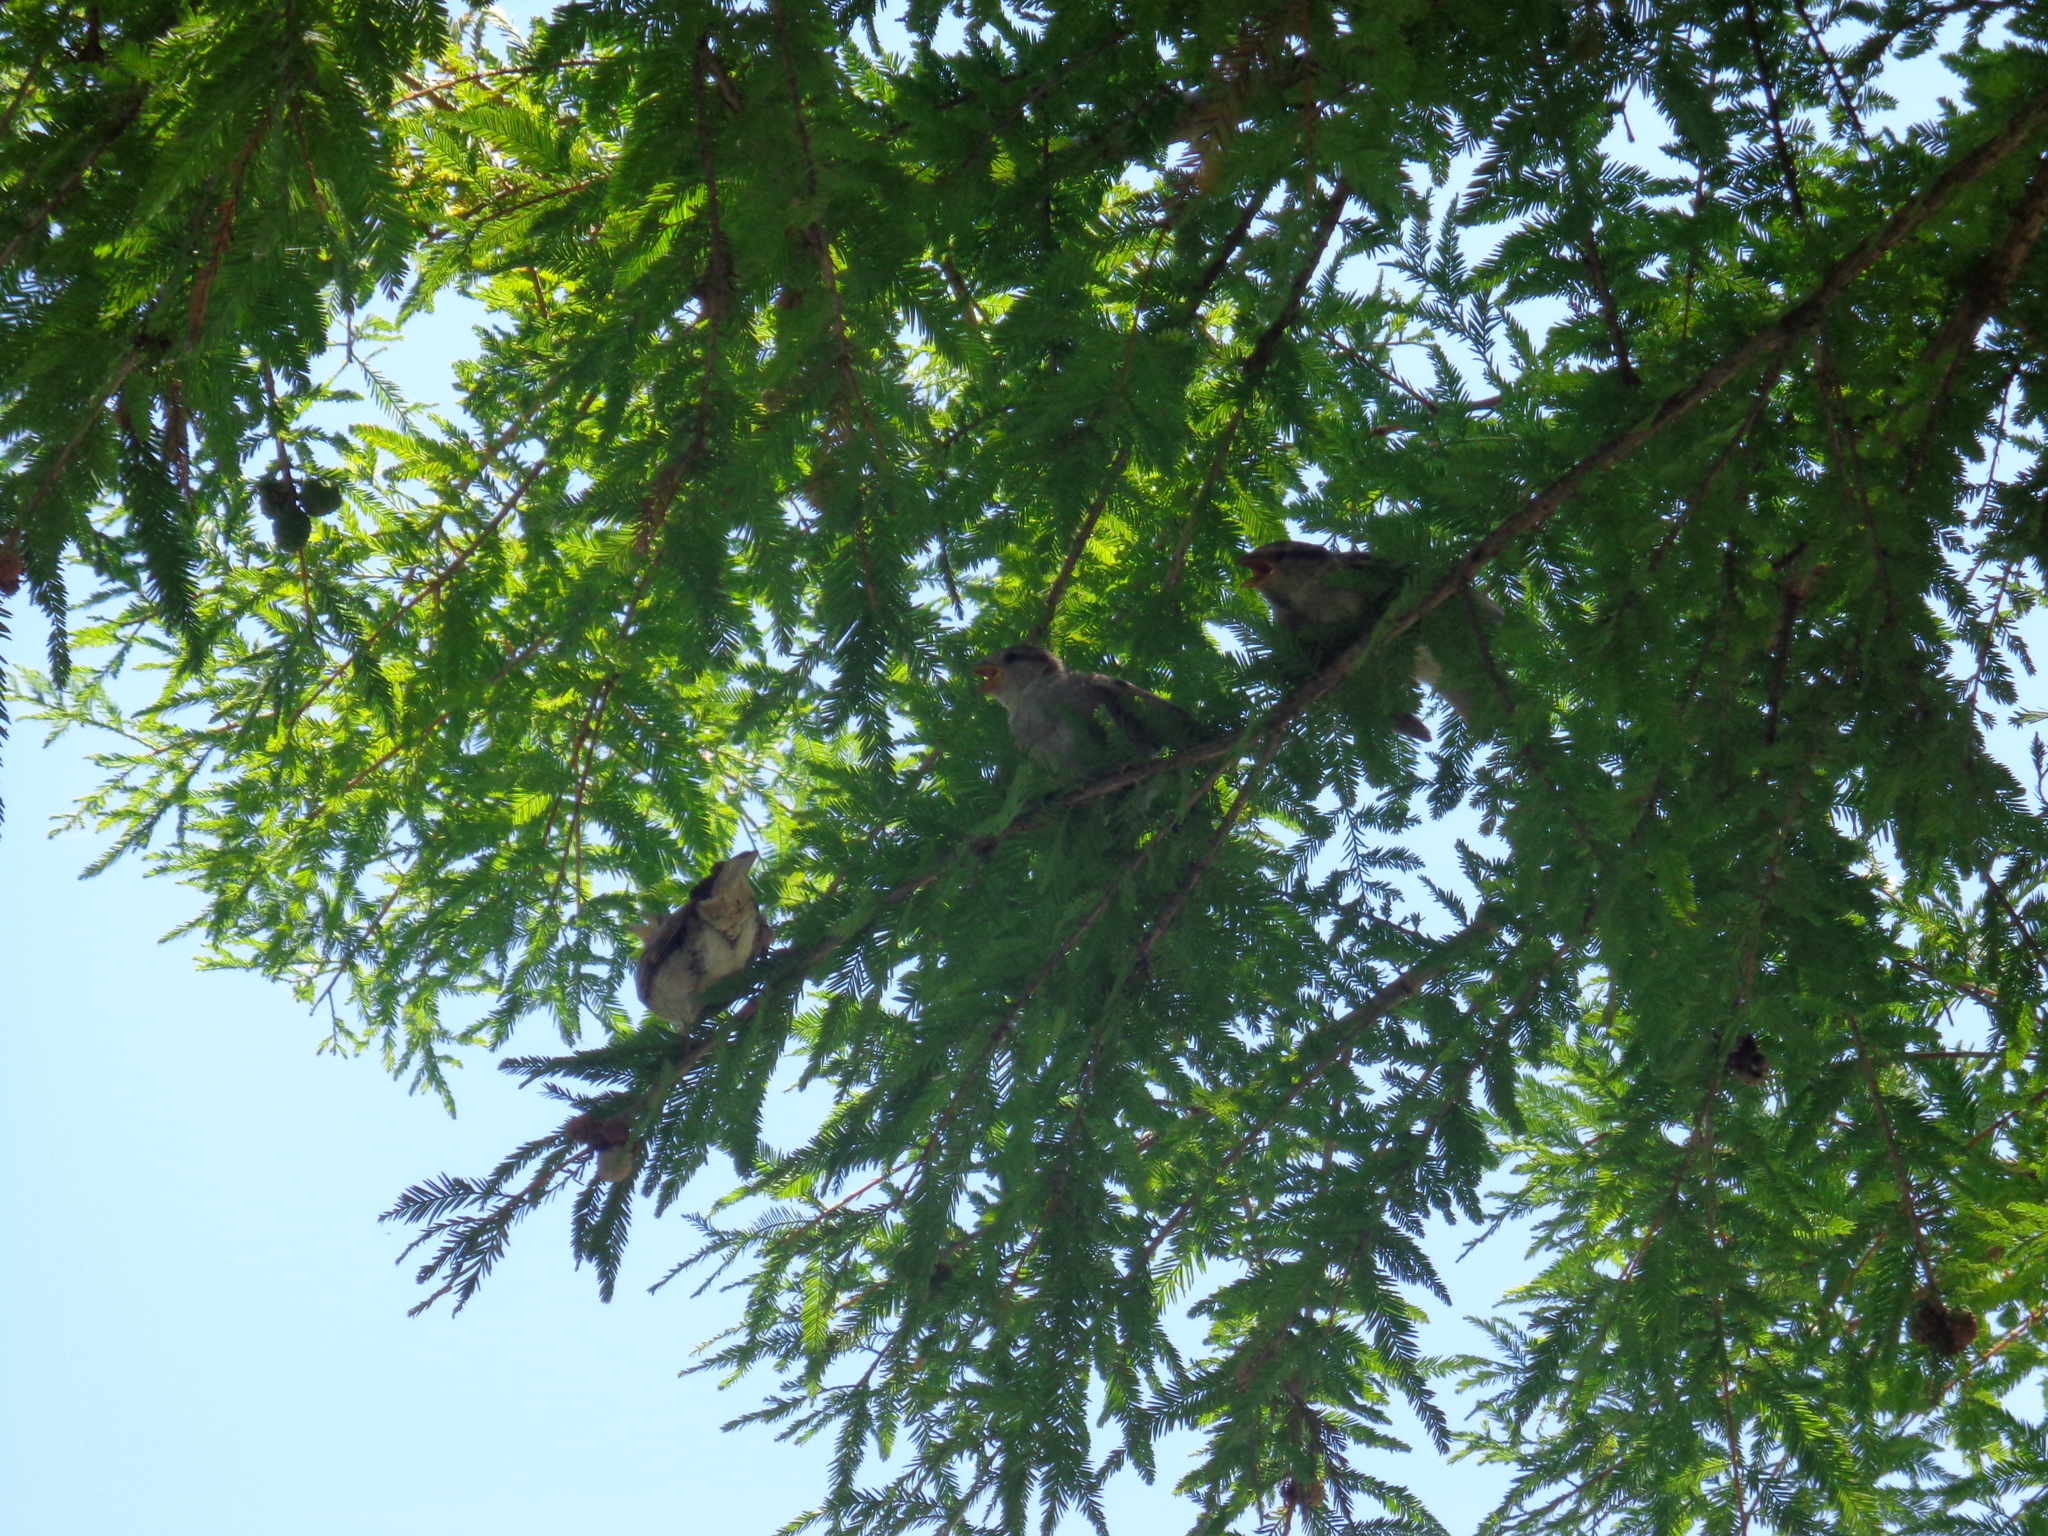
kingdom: Animalia
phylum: Chordata
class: Aves
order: Passeriformes
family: Passeridae
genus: Passer
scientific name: Passer domesticus
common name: House sparrow
